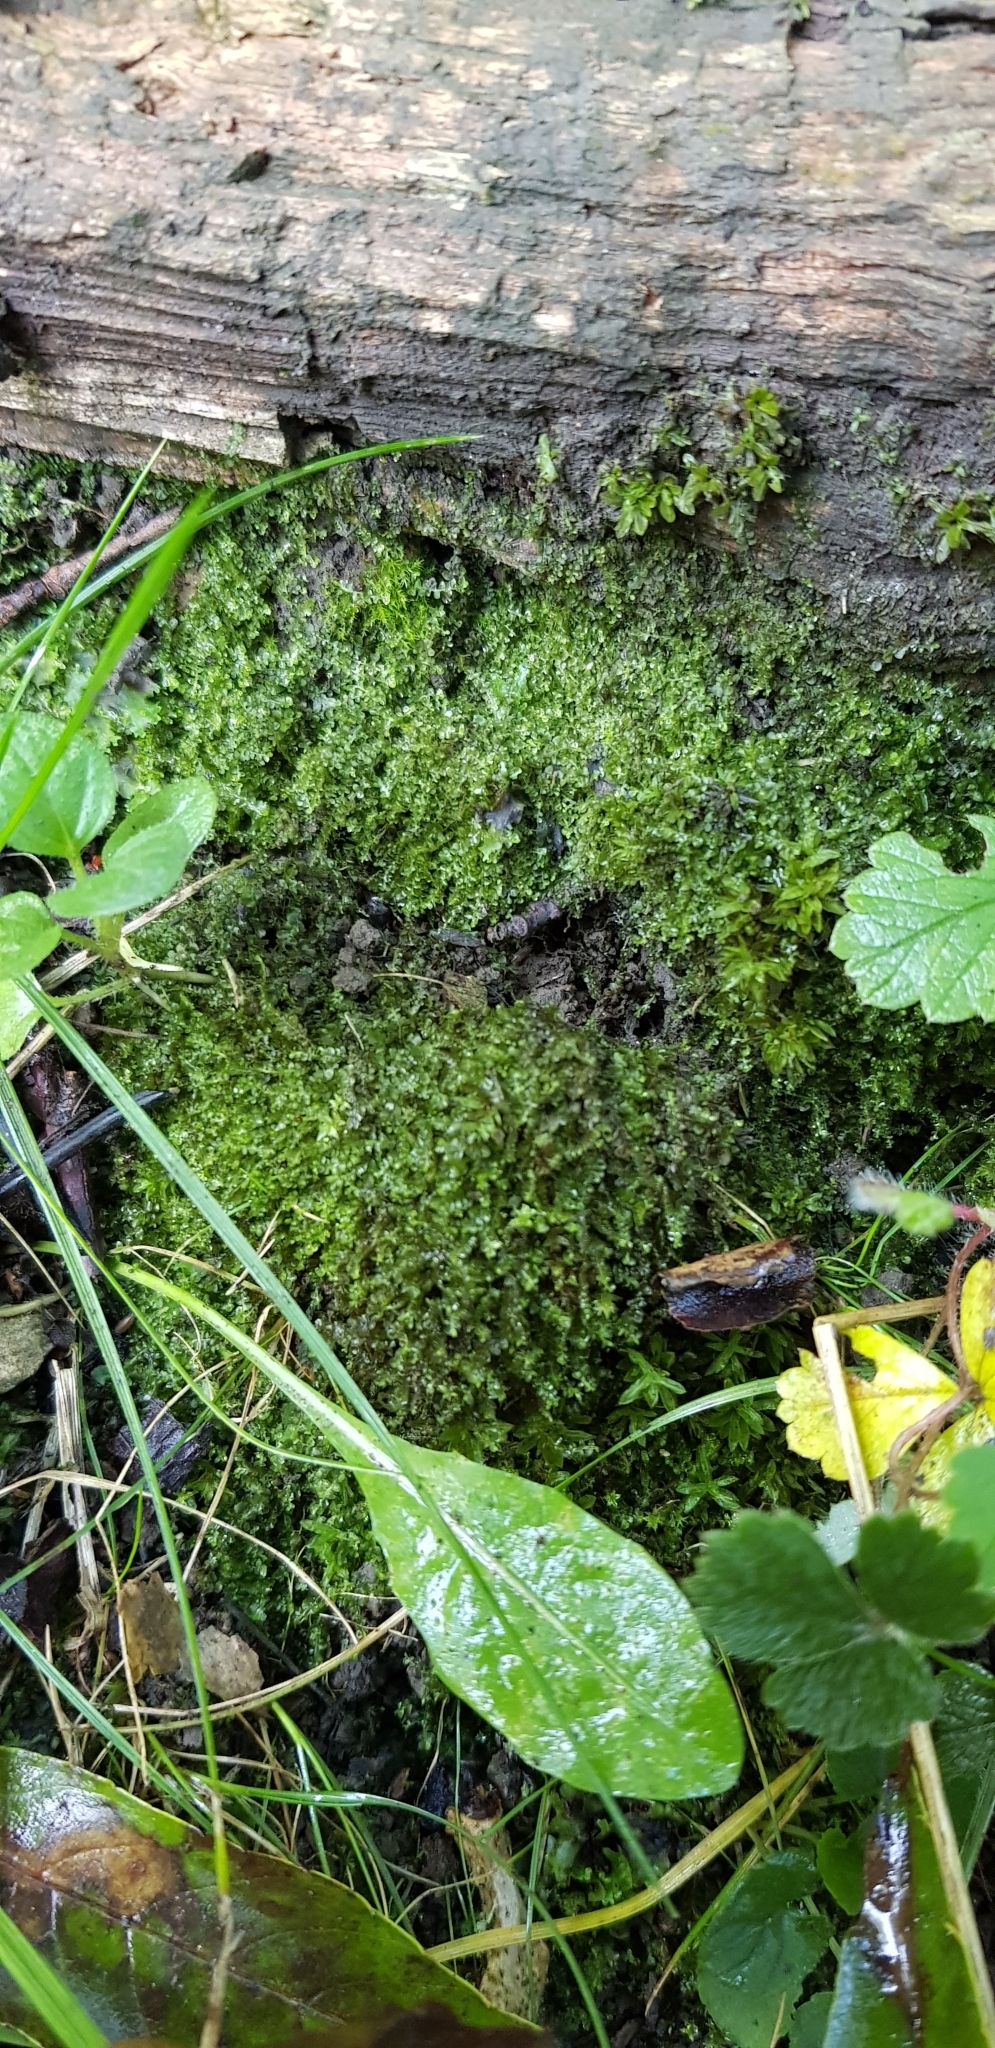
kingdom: Plantae
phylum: Marchantiophyta
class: Jungermanniopsida
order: Pelliales
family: Pelliaceae
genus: Apopellia
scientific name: Apopellia endiviifolia
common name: Endive pellia
